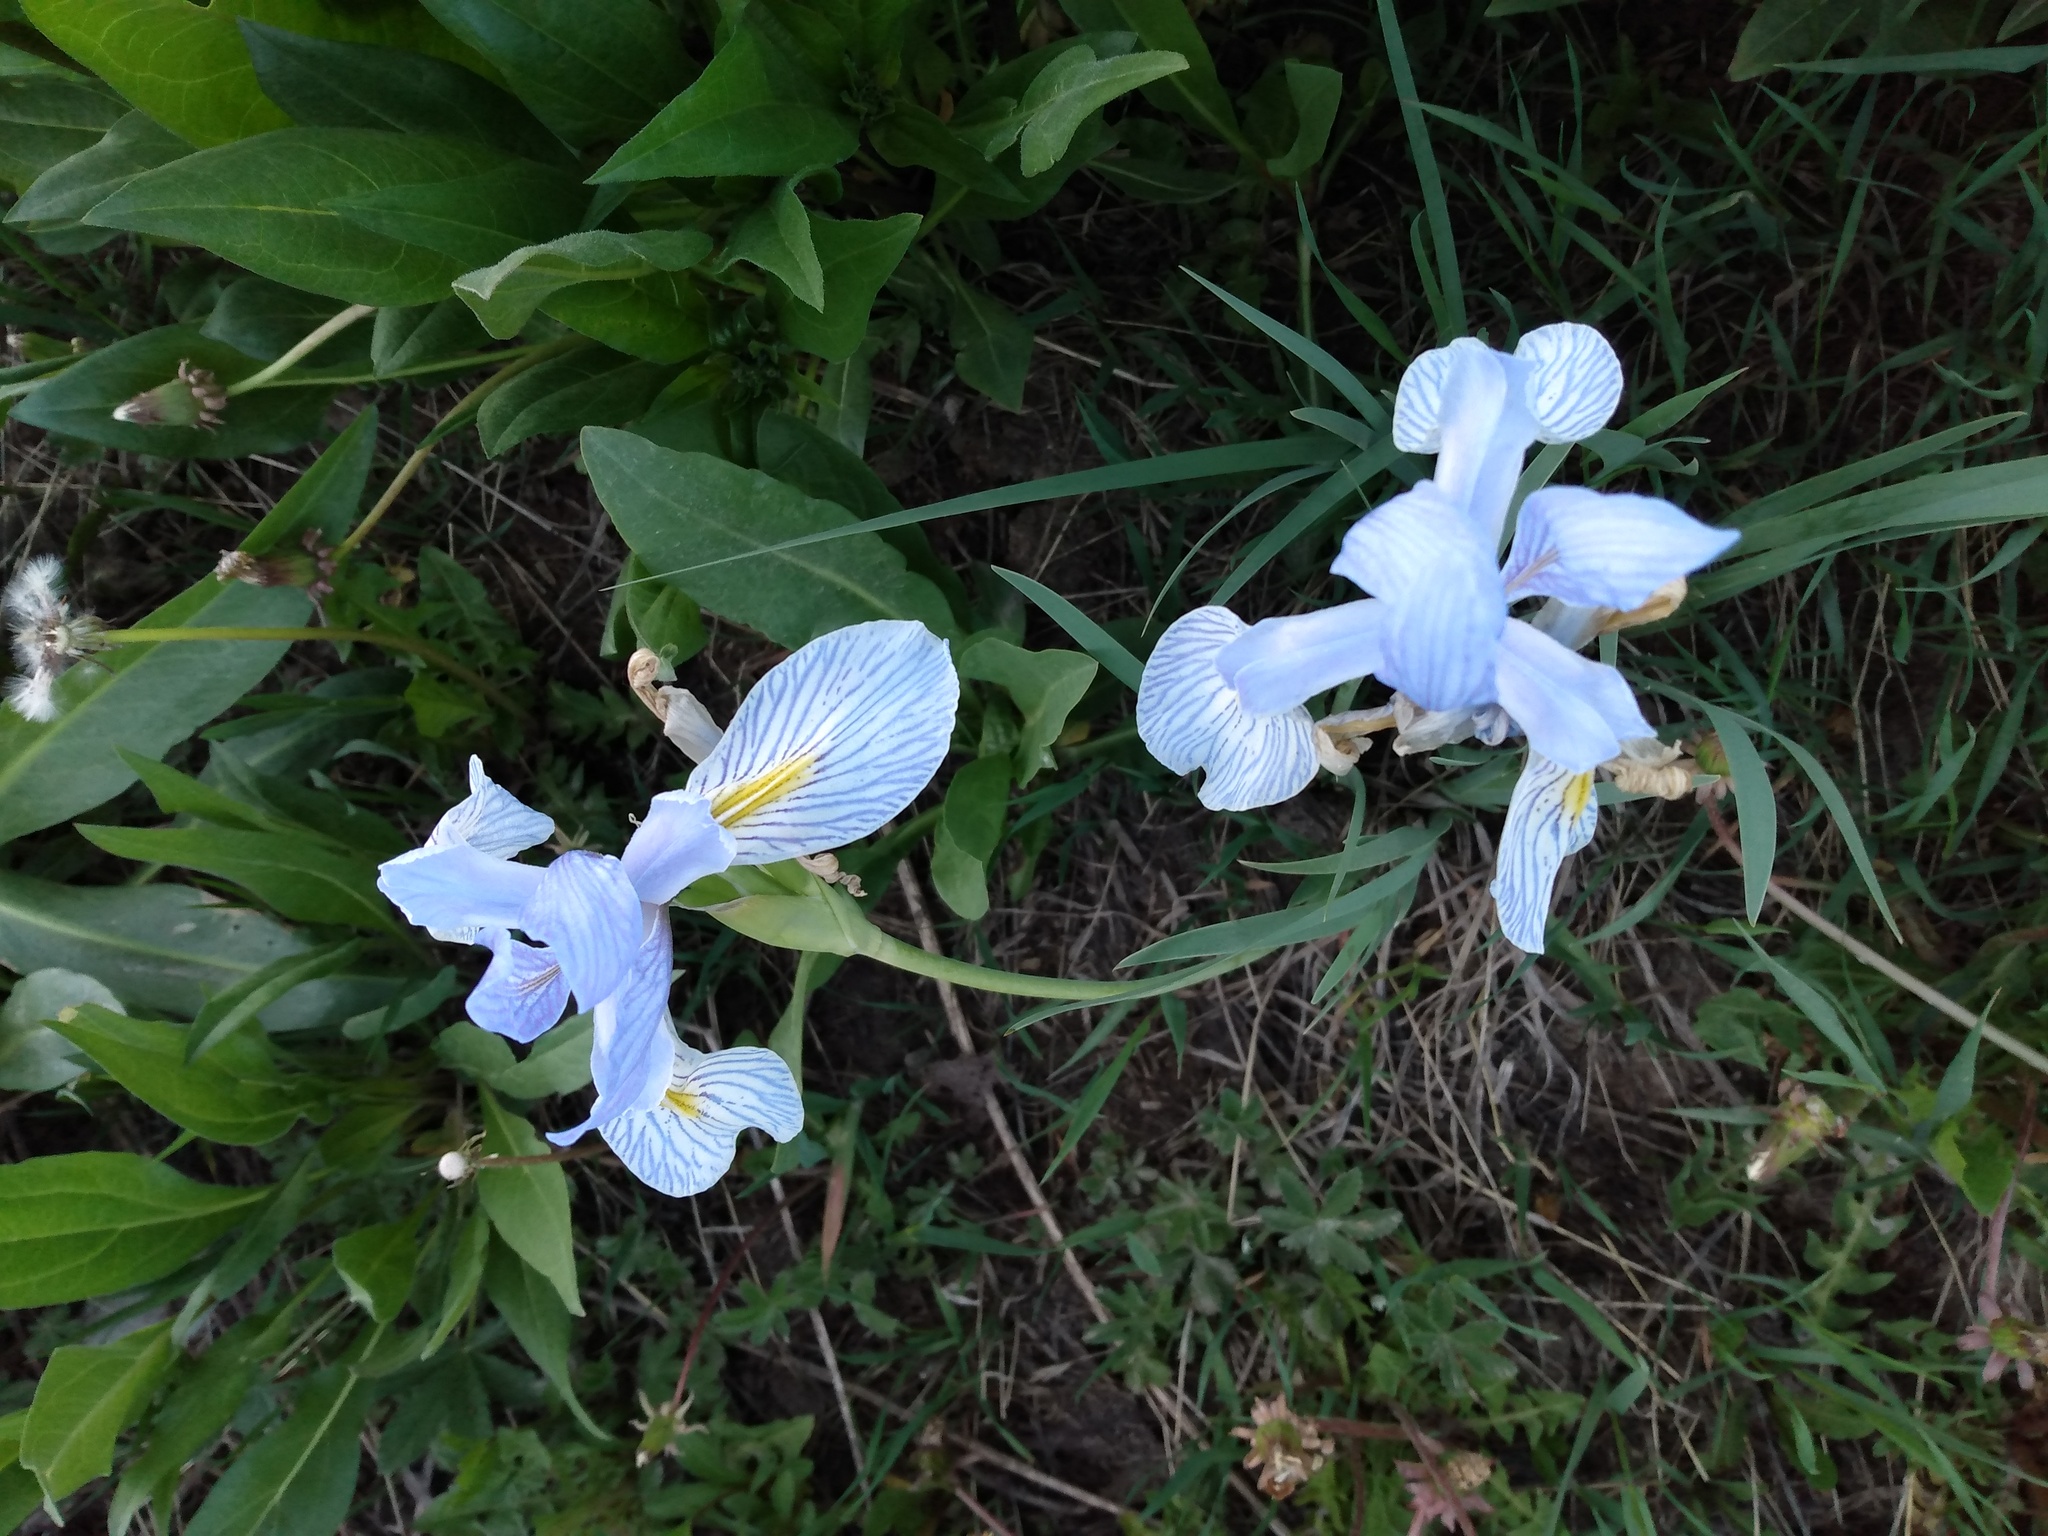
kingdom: Plantae
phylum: Tracheophyta
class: Liliopsida
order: Asparagales
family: Iridaceae
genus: Iris
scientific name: Iris missouriensis
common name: Rocky mountain iris
